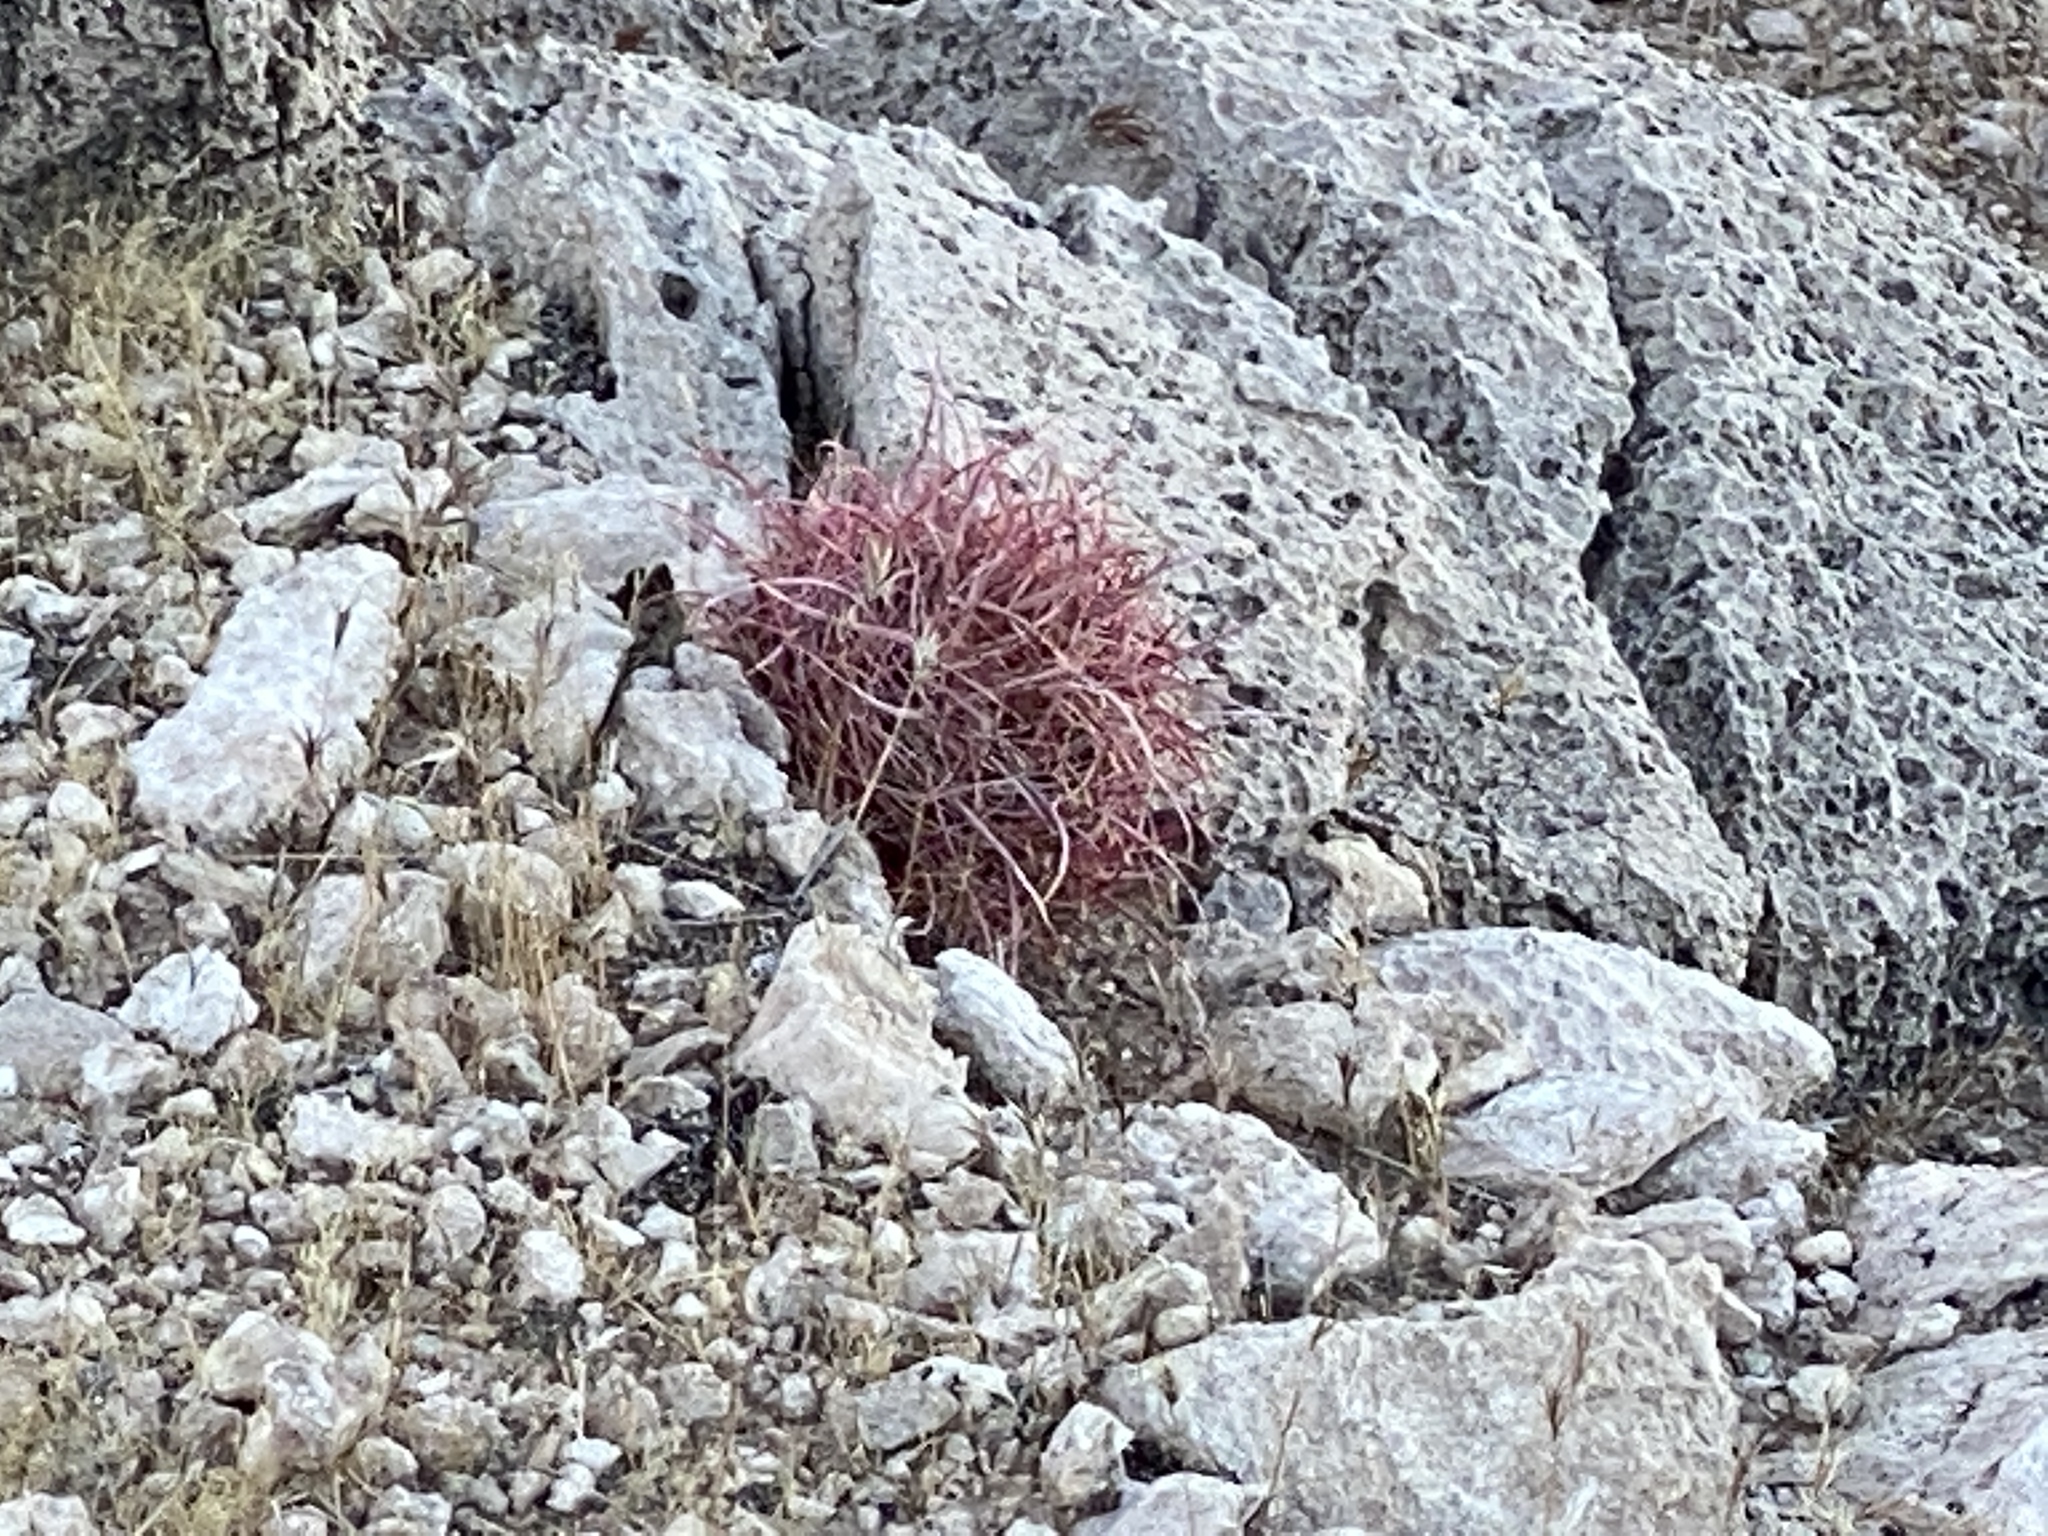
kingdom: Plantae
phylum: Tracheophyta
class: Magnoliopsida
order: Caryophyllales
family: Cactaceae
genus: Ferocactus
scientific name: Ferocactus cylindraceus
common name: California barrel cactus
